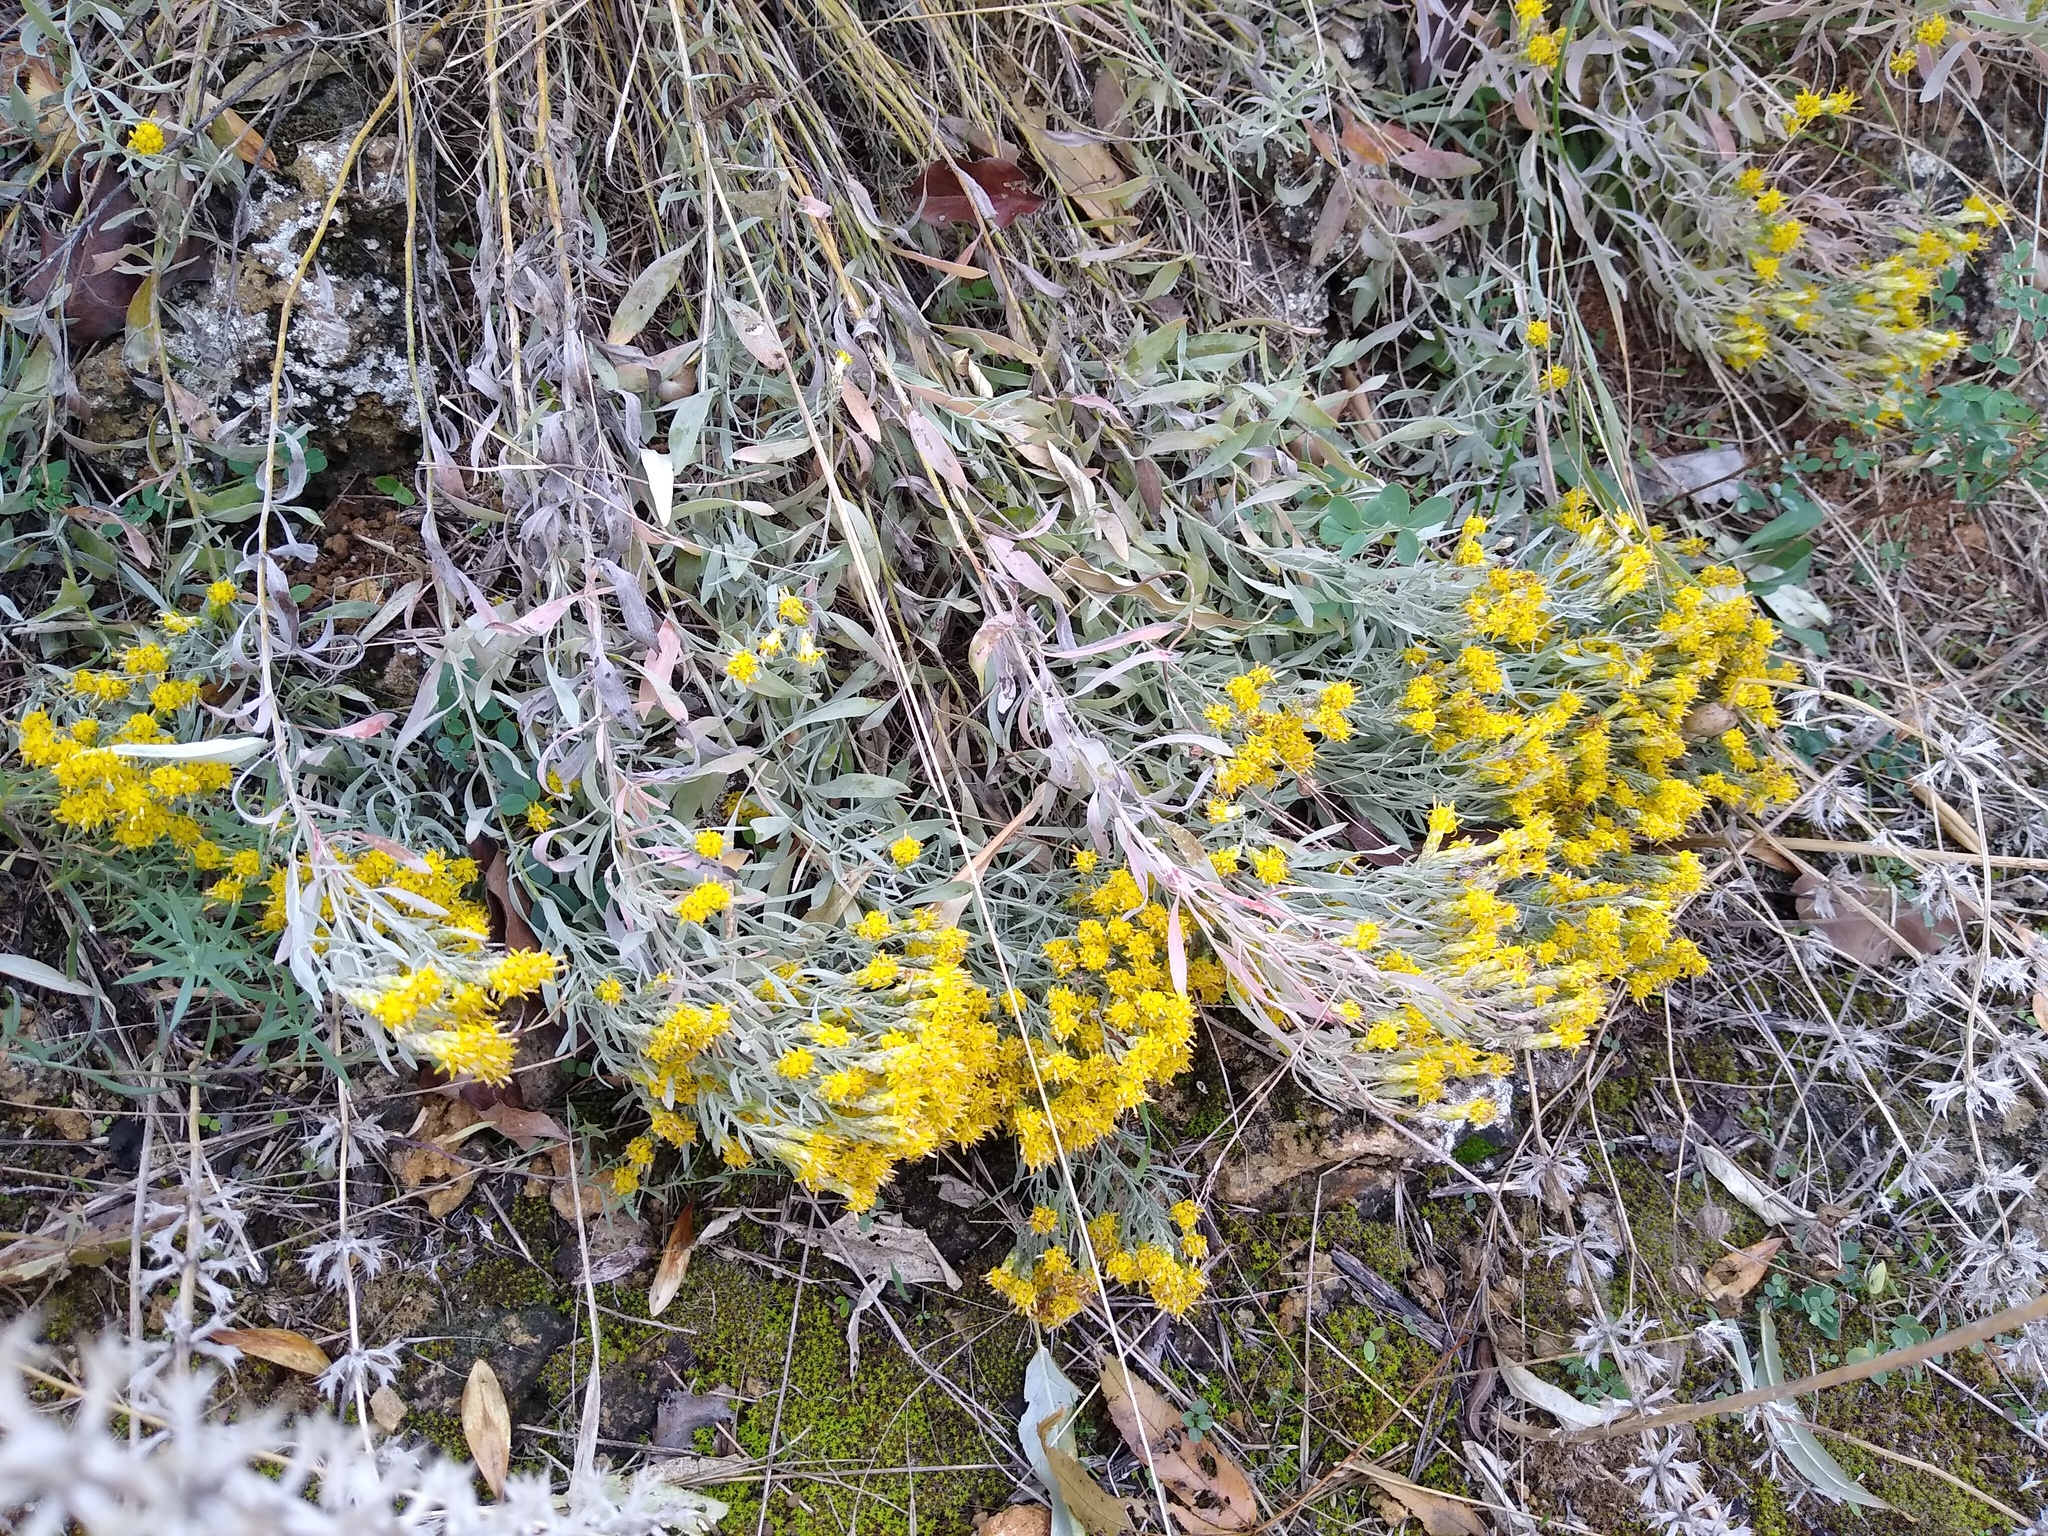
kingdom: Plantae
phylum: Tracheophyta
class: Magnoliopsida
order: Asterales
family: Asteraceae
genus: Galatella
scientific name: Galatella villosa
